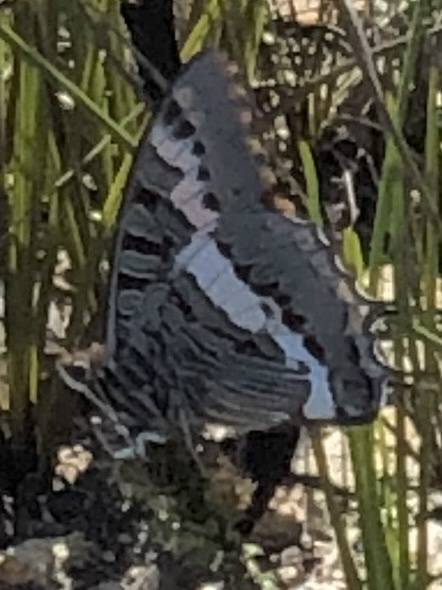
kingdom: Animalia
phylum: Arthropoda
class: Insecta
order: Lepidoptera
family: Nymphalidae
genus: Charaxes
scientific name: Charaxes pelias
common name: Protea charaxes
